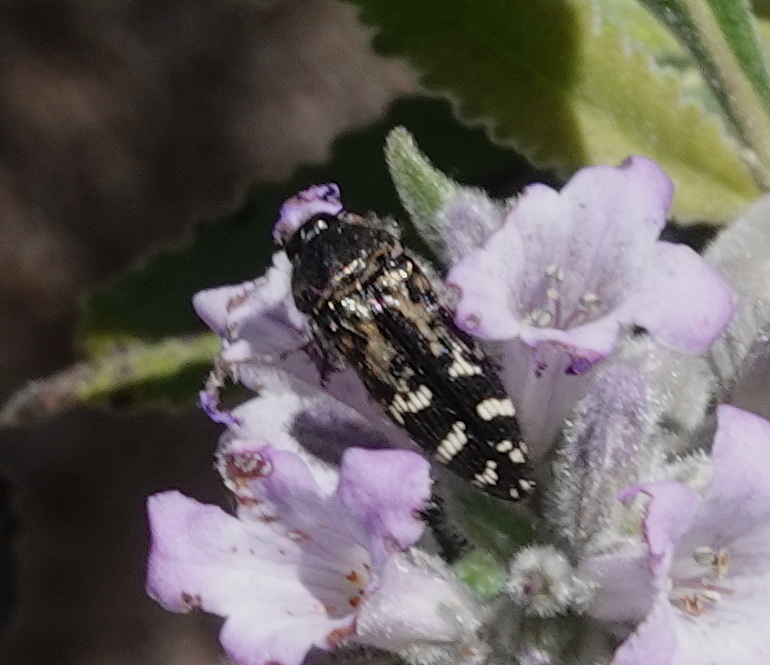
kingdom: Animalia
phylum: Arthropoda
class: Insecta
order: Coleoptera
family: Buprestidae
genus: Acmaeodera
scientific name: Acmaeodera connexa
